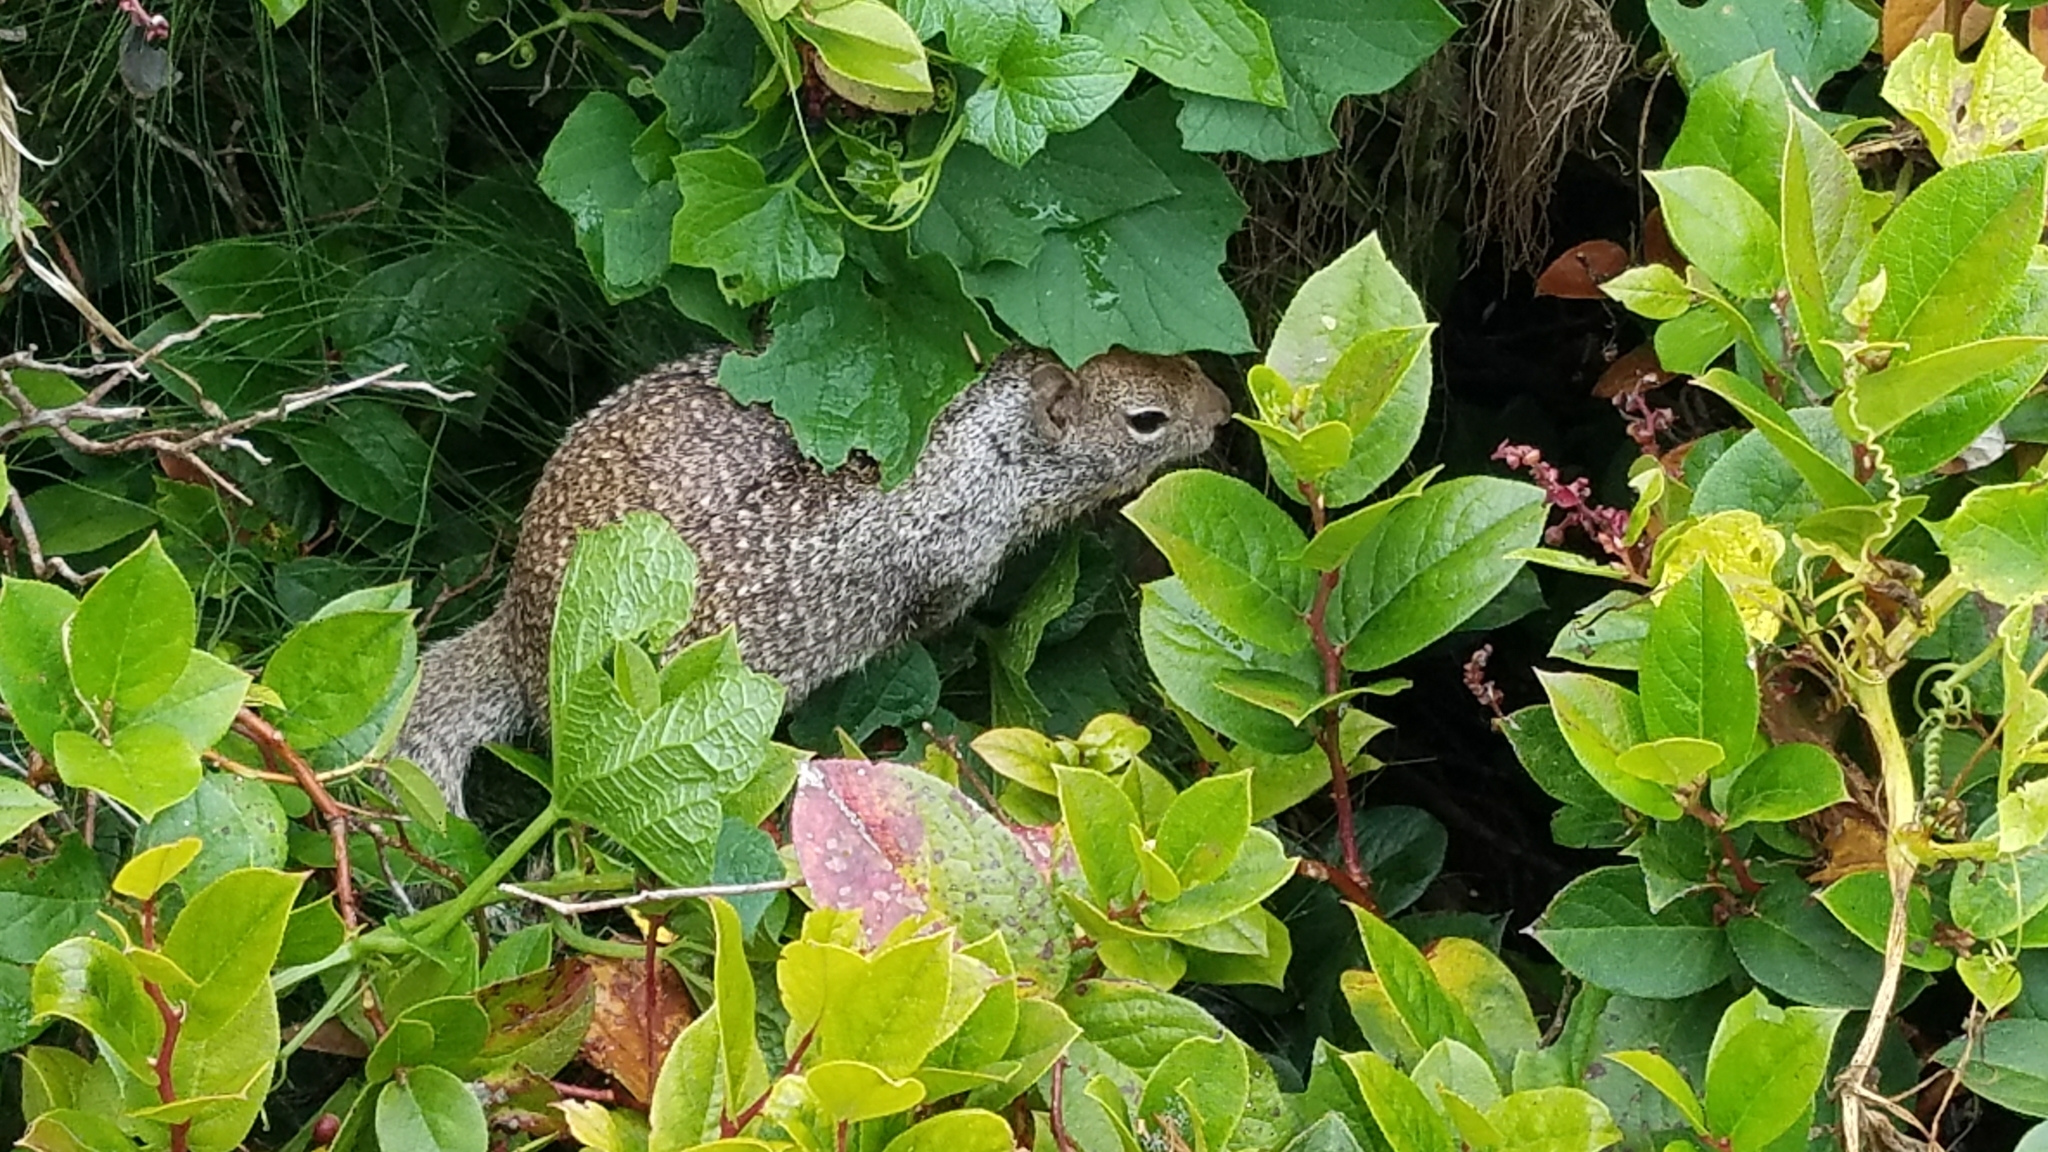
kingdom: Animalia
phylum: Chordata
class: Mammalia
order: Rodentia
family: Sciuridae
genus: Otospermophilus
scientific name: Otospermophilus beecheyi
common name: California ground squirrel
